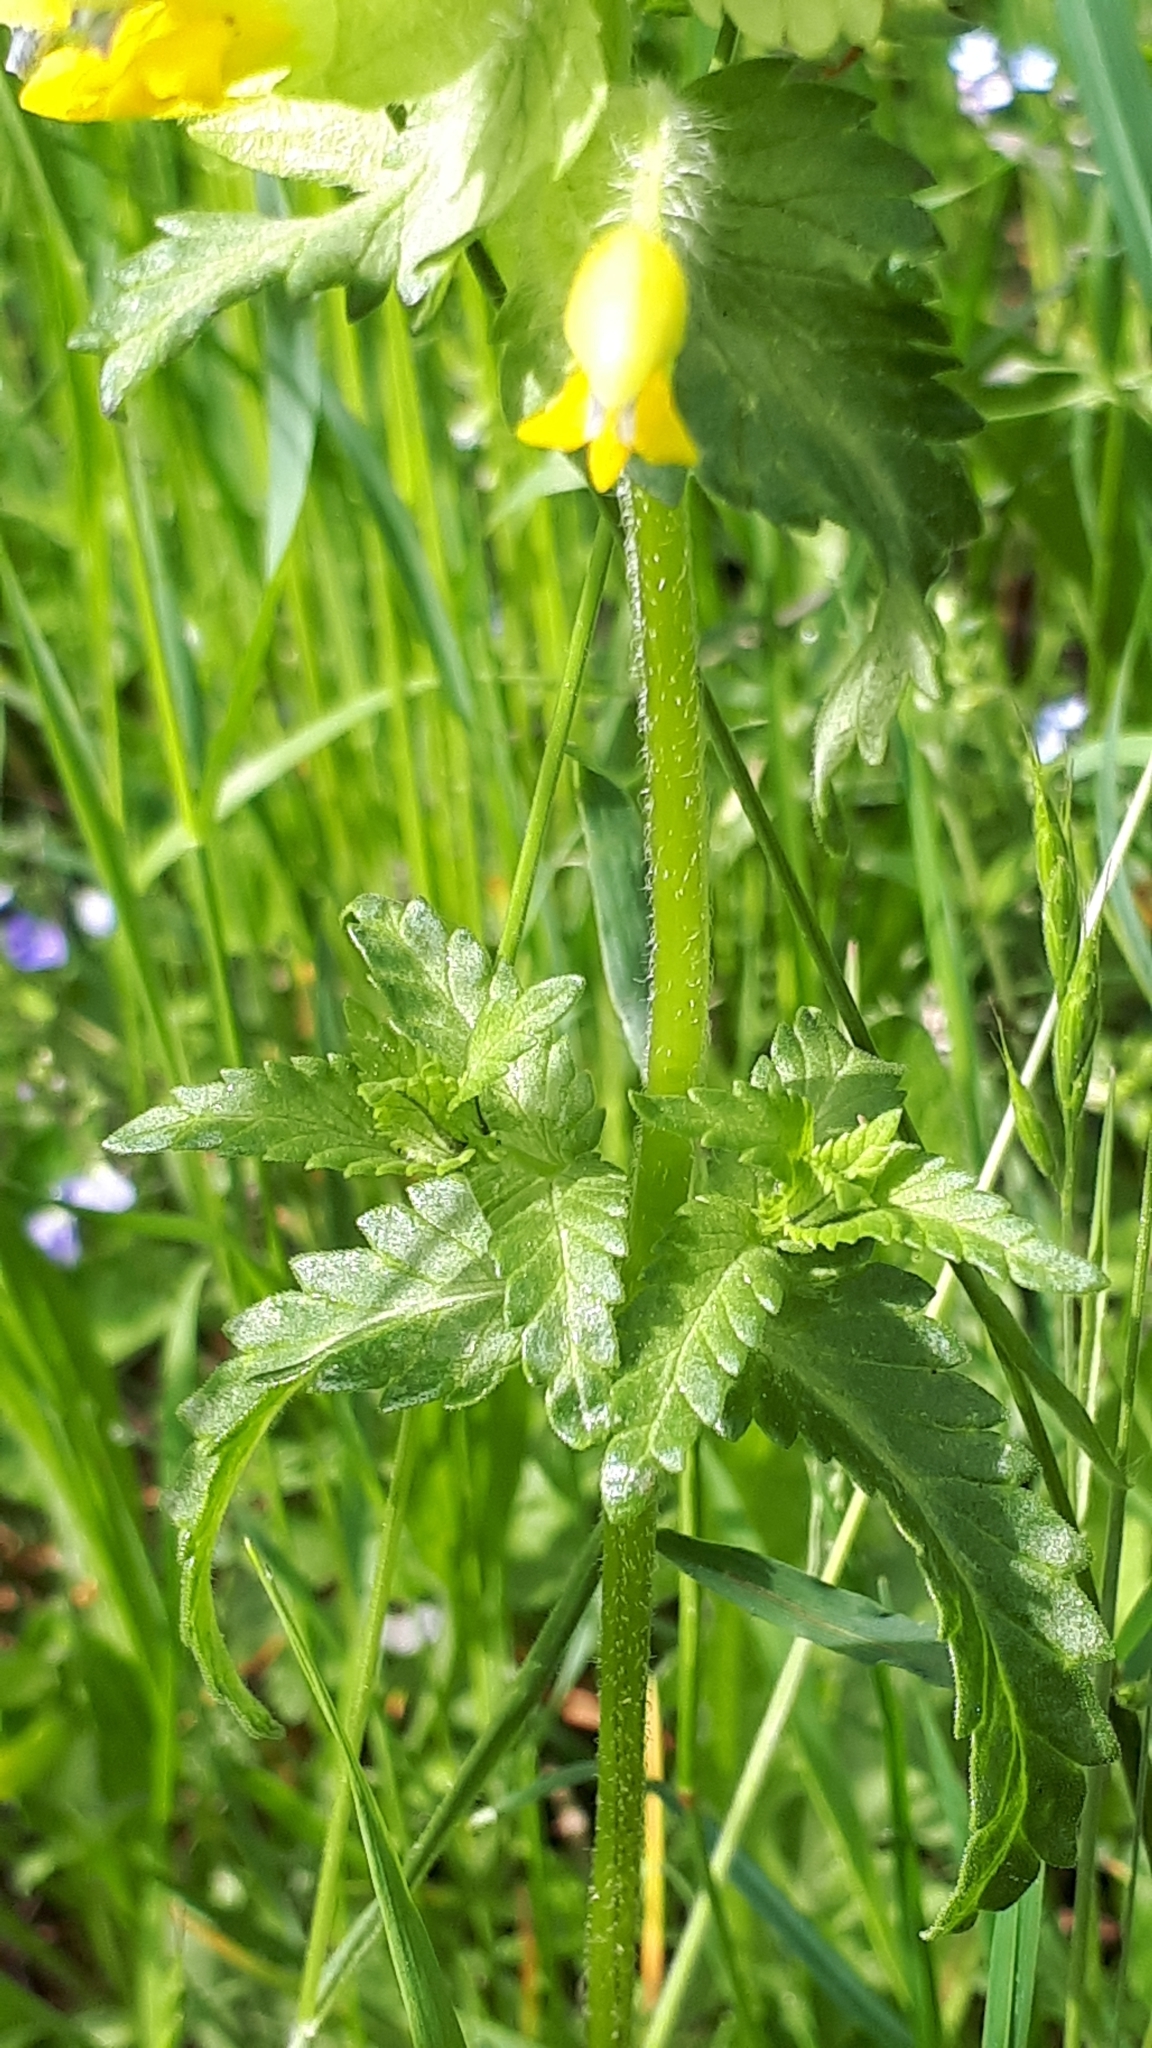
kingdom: Plantae
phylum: Tracheophyta
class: Magnoliopsida
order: Lamiales
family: Orobanchaceae
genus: Rhinanthus
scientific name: Rhinanthus alectorolophus
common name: Greater yellow-rattle
